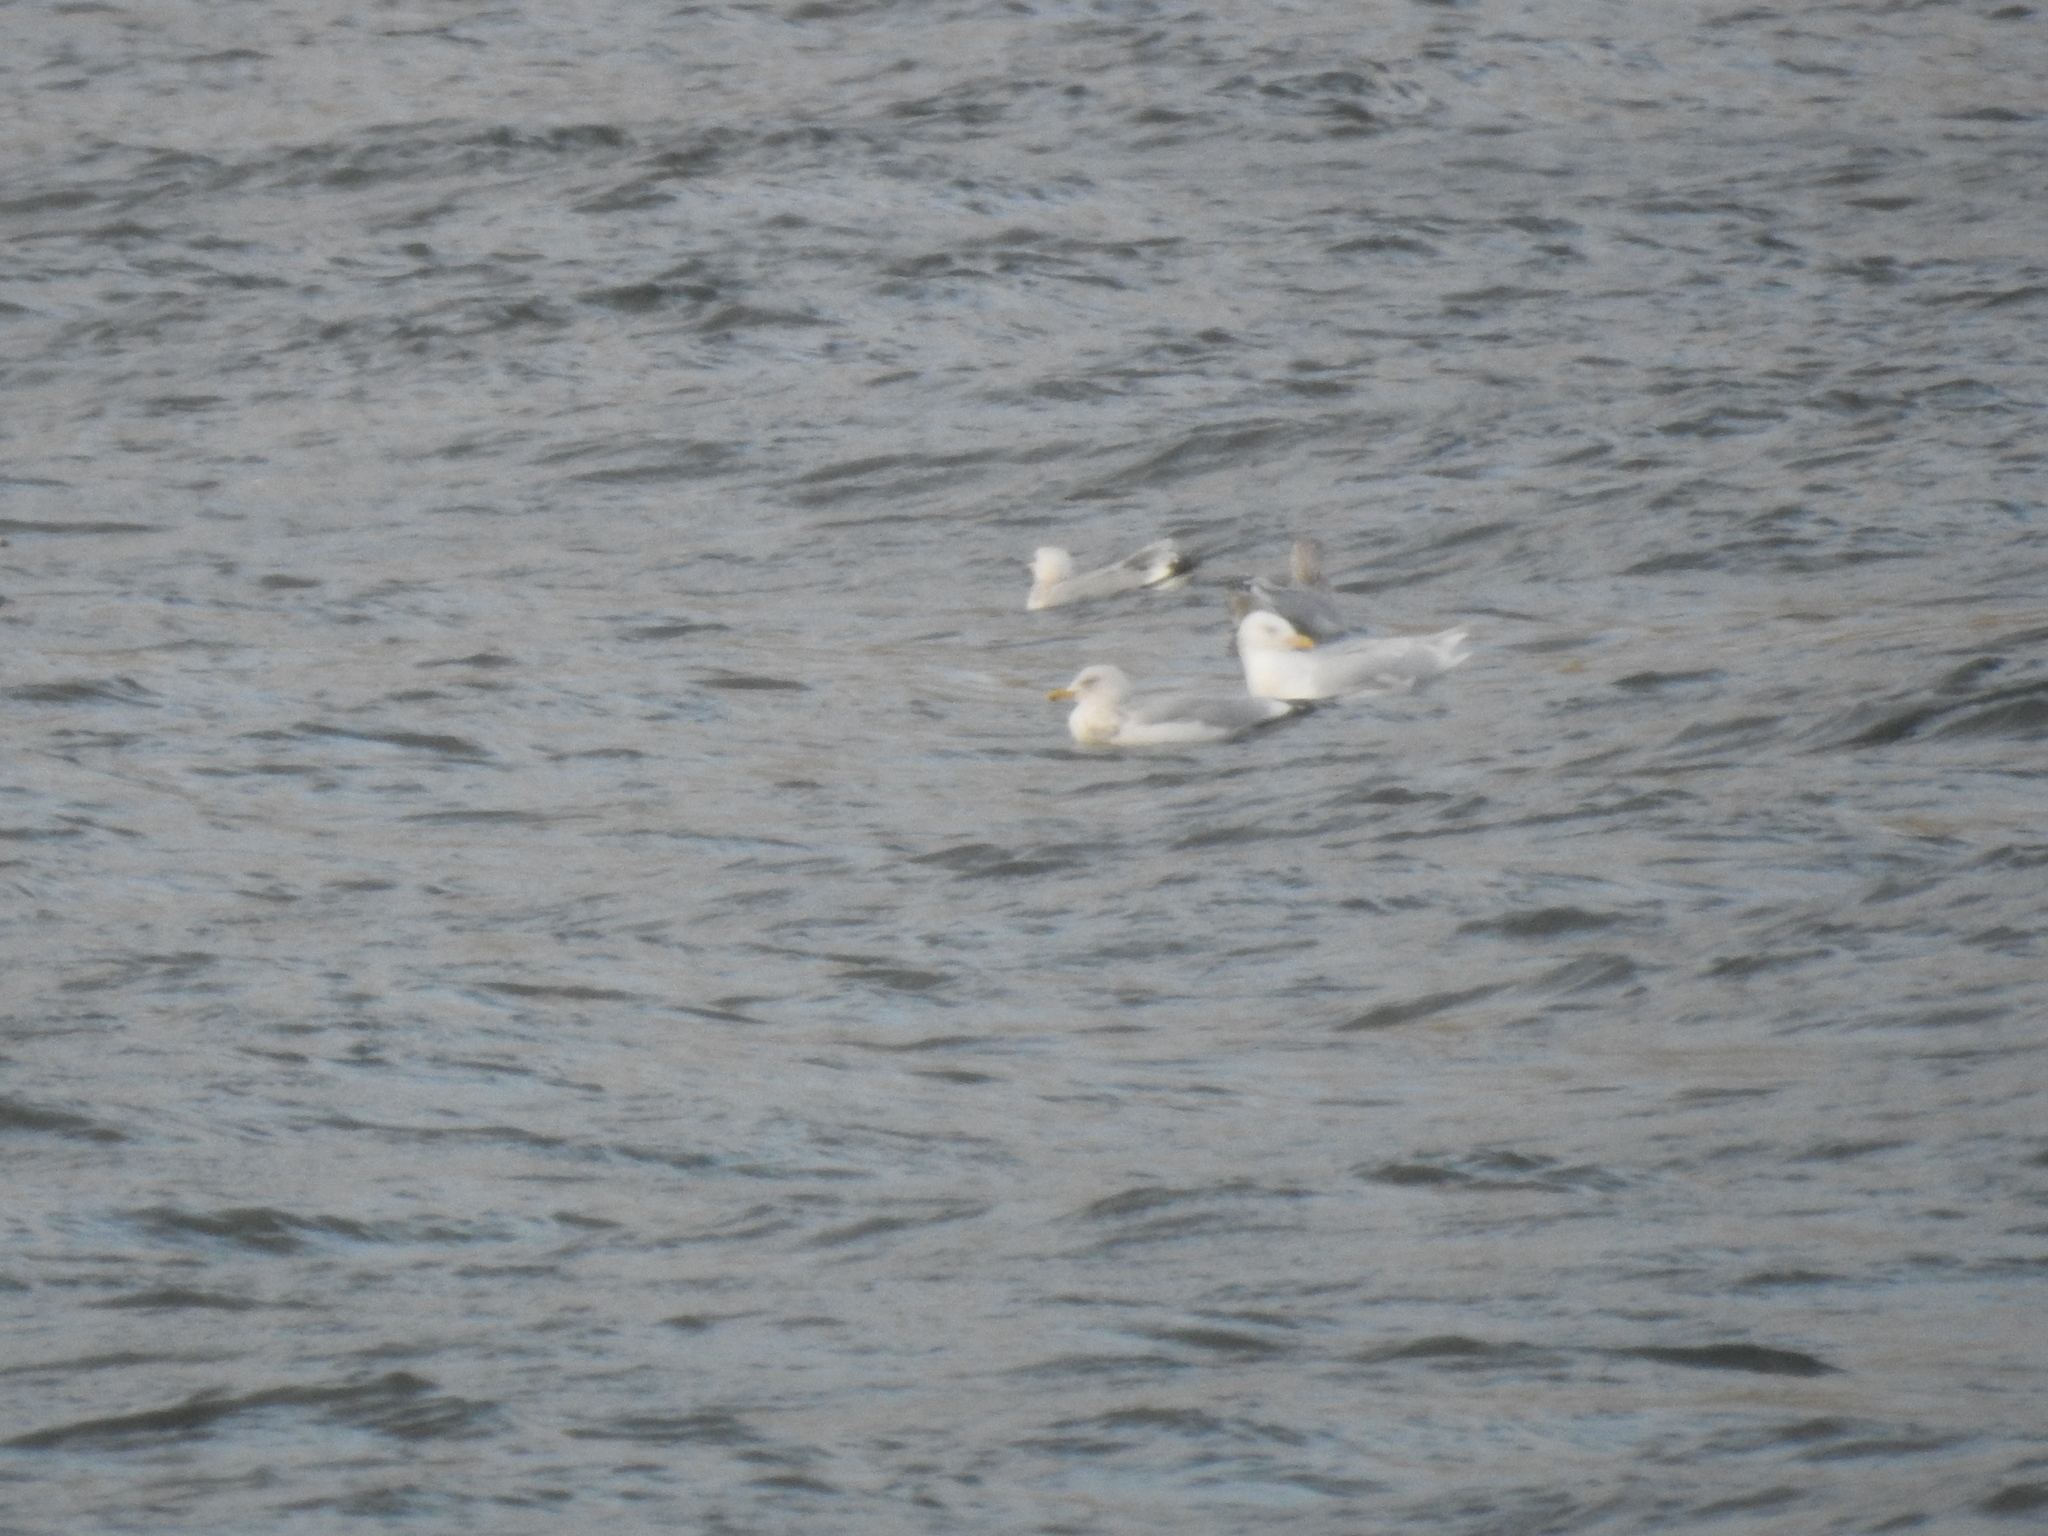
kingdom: Animalia
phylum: Chordata
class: Aves
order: Charadriiformes
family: Laridae
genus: Larus
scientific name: Larus hyperboreus
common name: Glaucous gull
